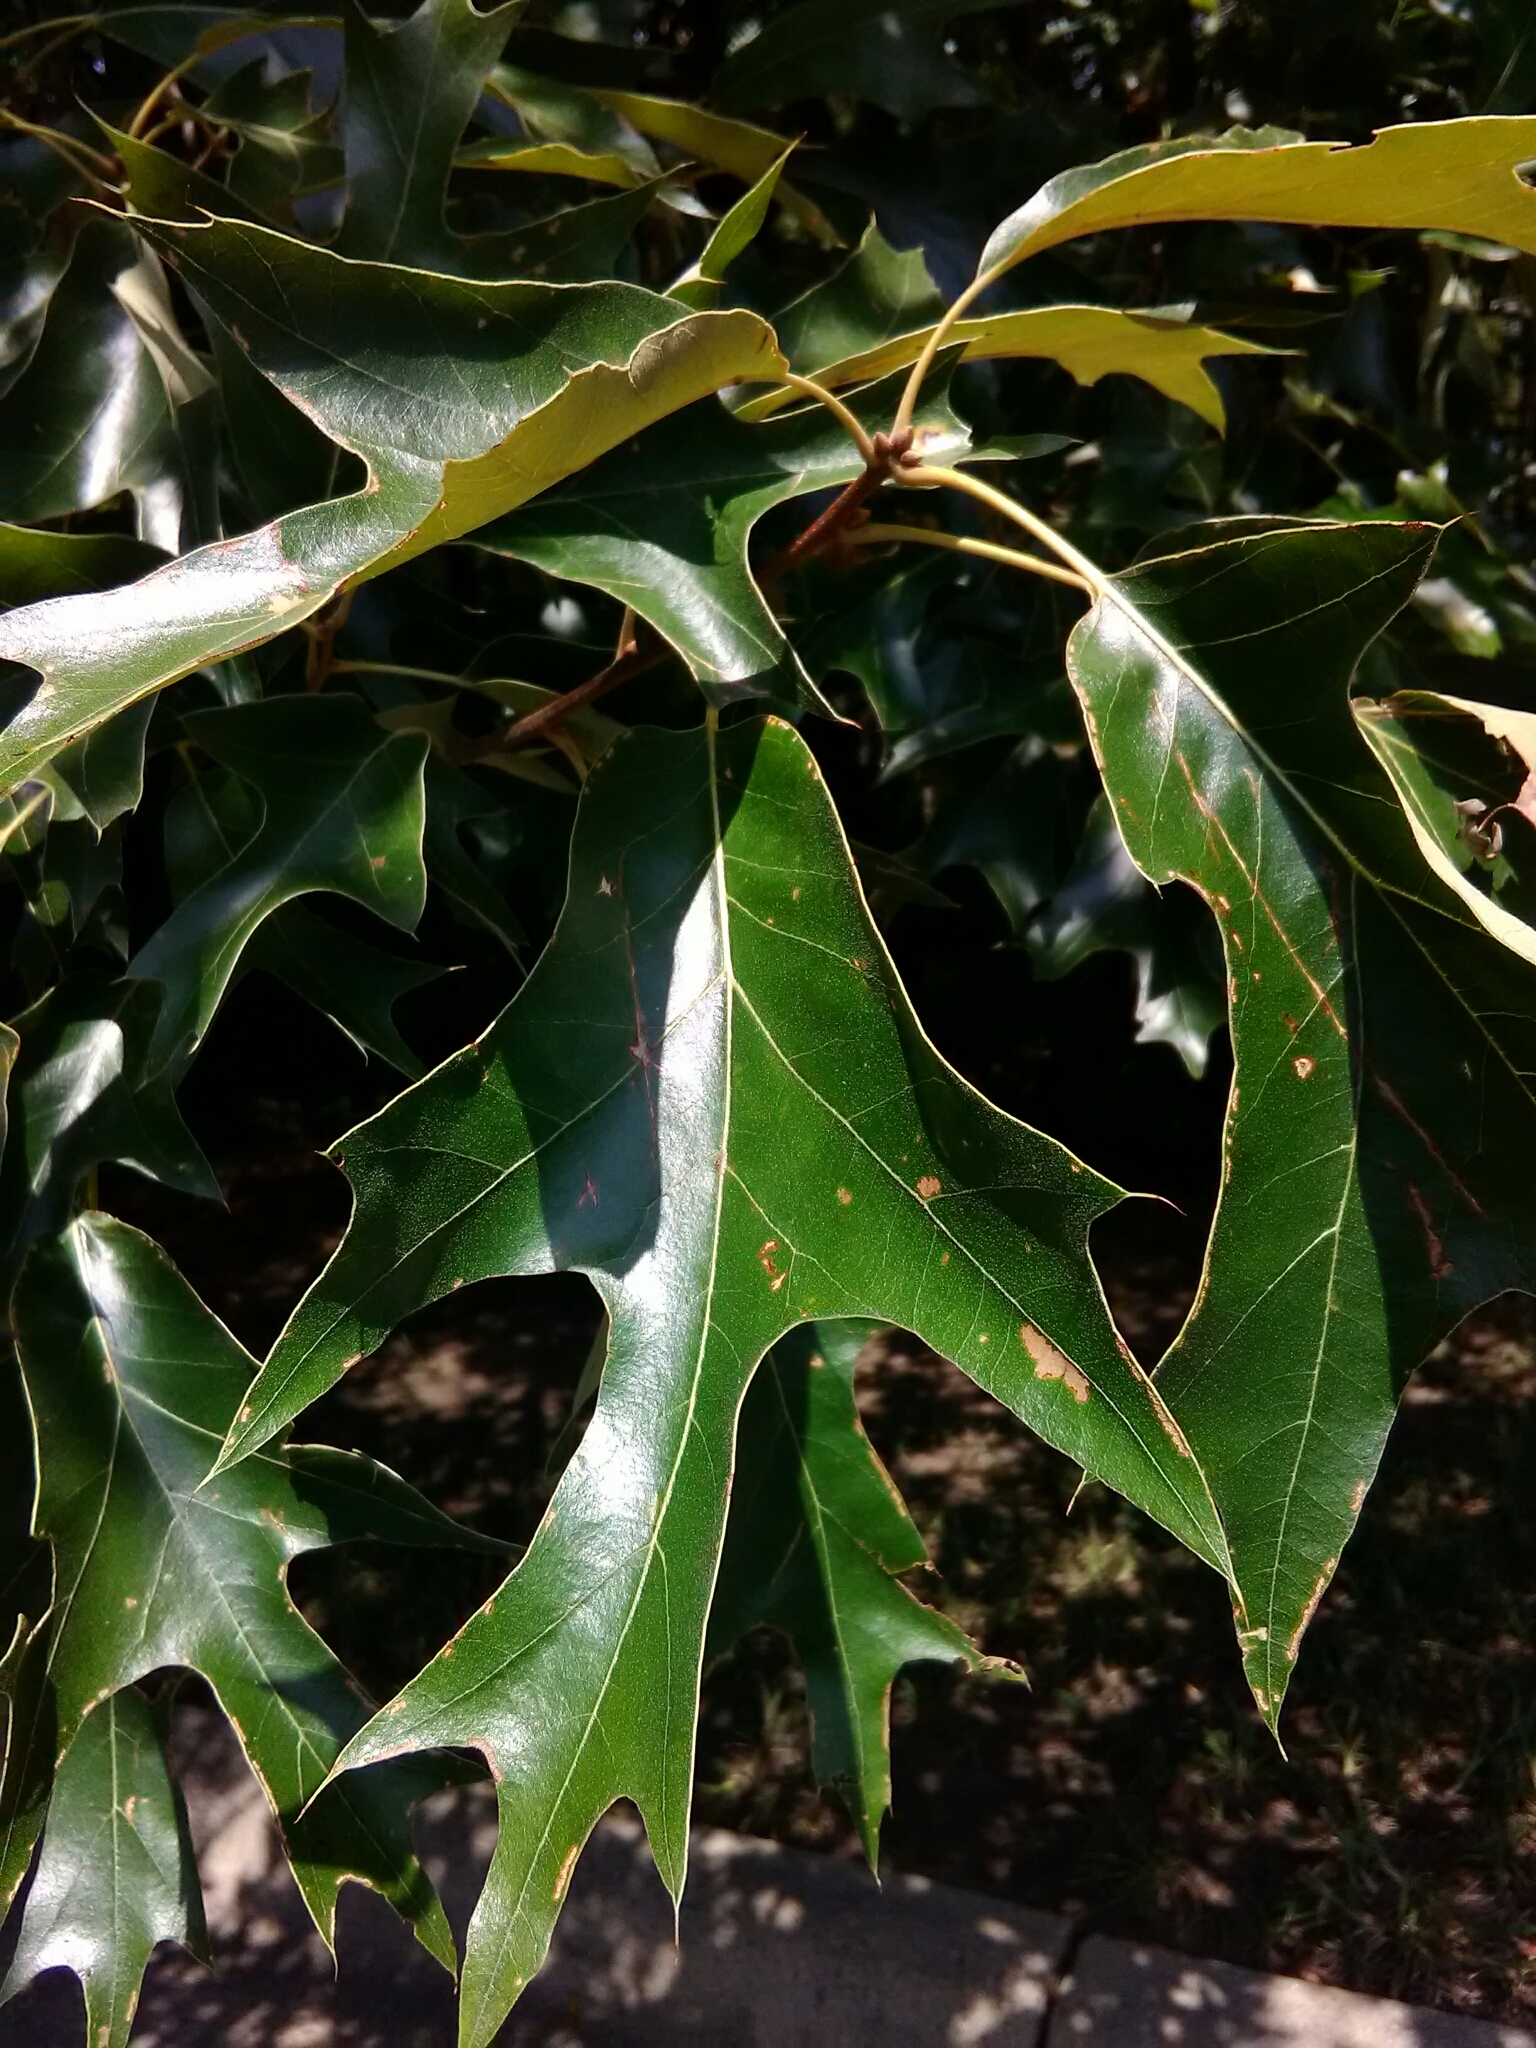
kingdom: Plantae
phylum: Tracheophyta
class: Magnoliopsida
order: Fagales
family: Fagaceae
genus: Quercus
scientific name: Quercus falcata
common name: Southern red oak
